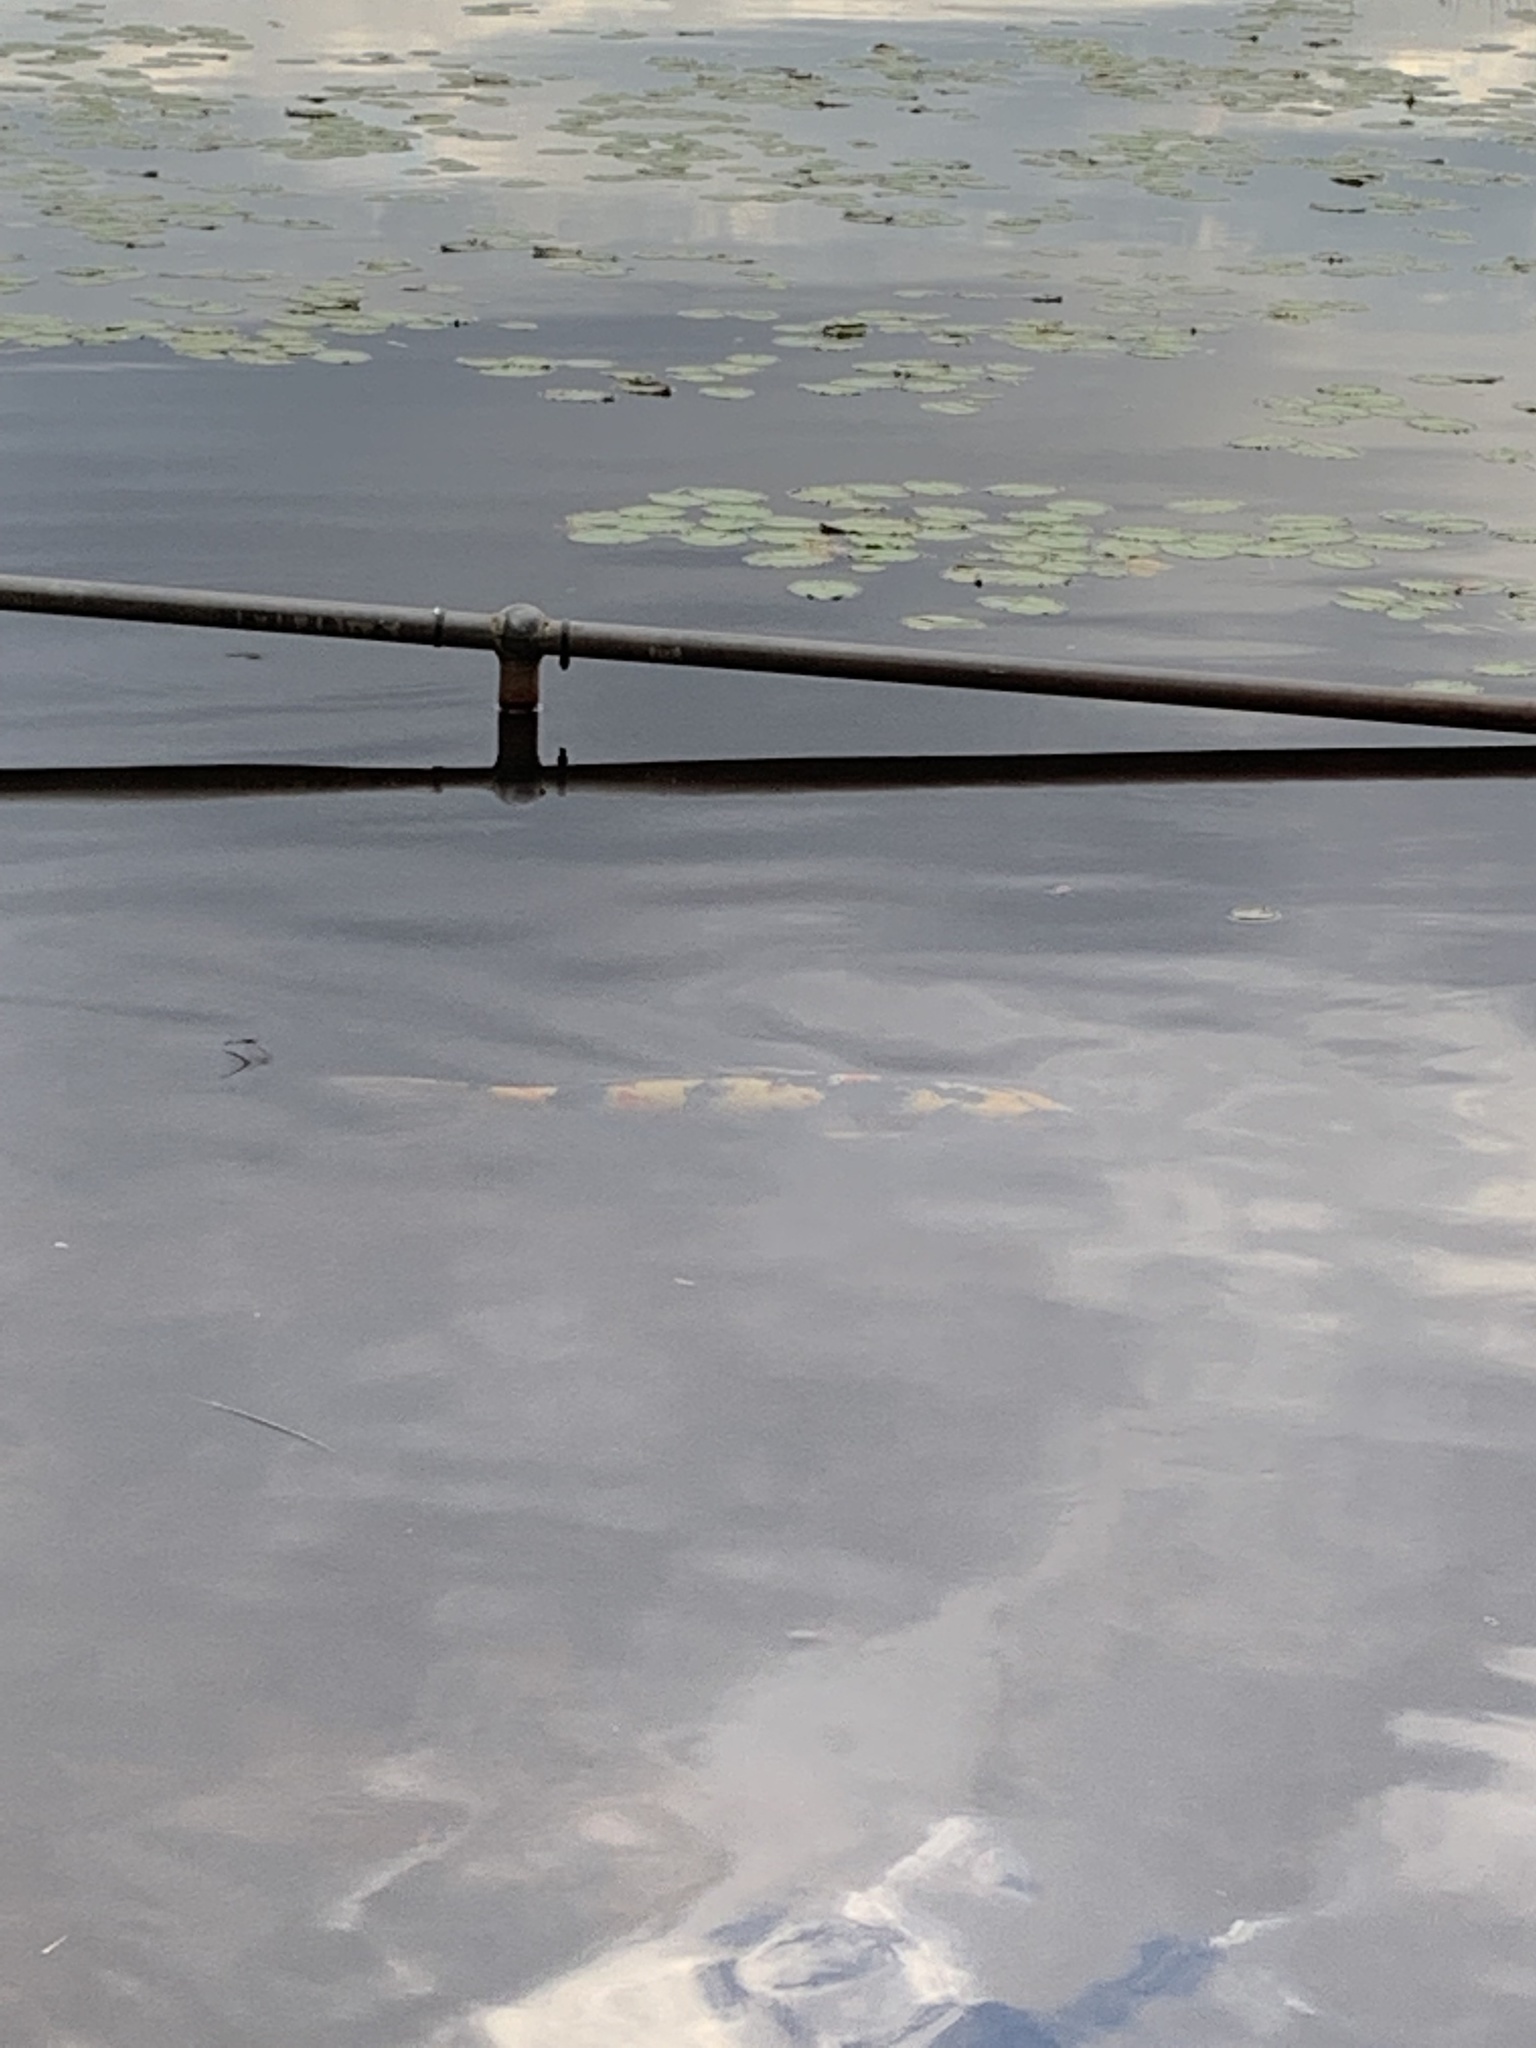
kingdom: Animalia
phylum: Chordata
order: Cypriniformes
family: Cyprinidae
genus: Cyprinus
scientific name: Cyprinus rubrofuscus
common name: Koi
